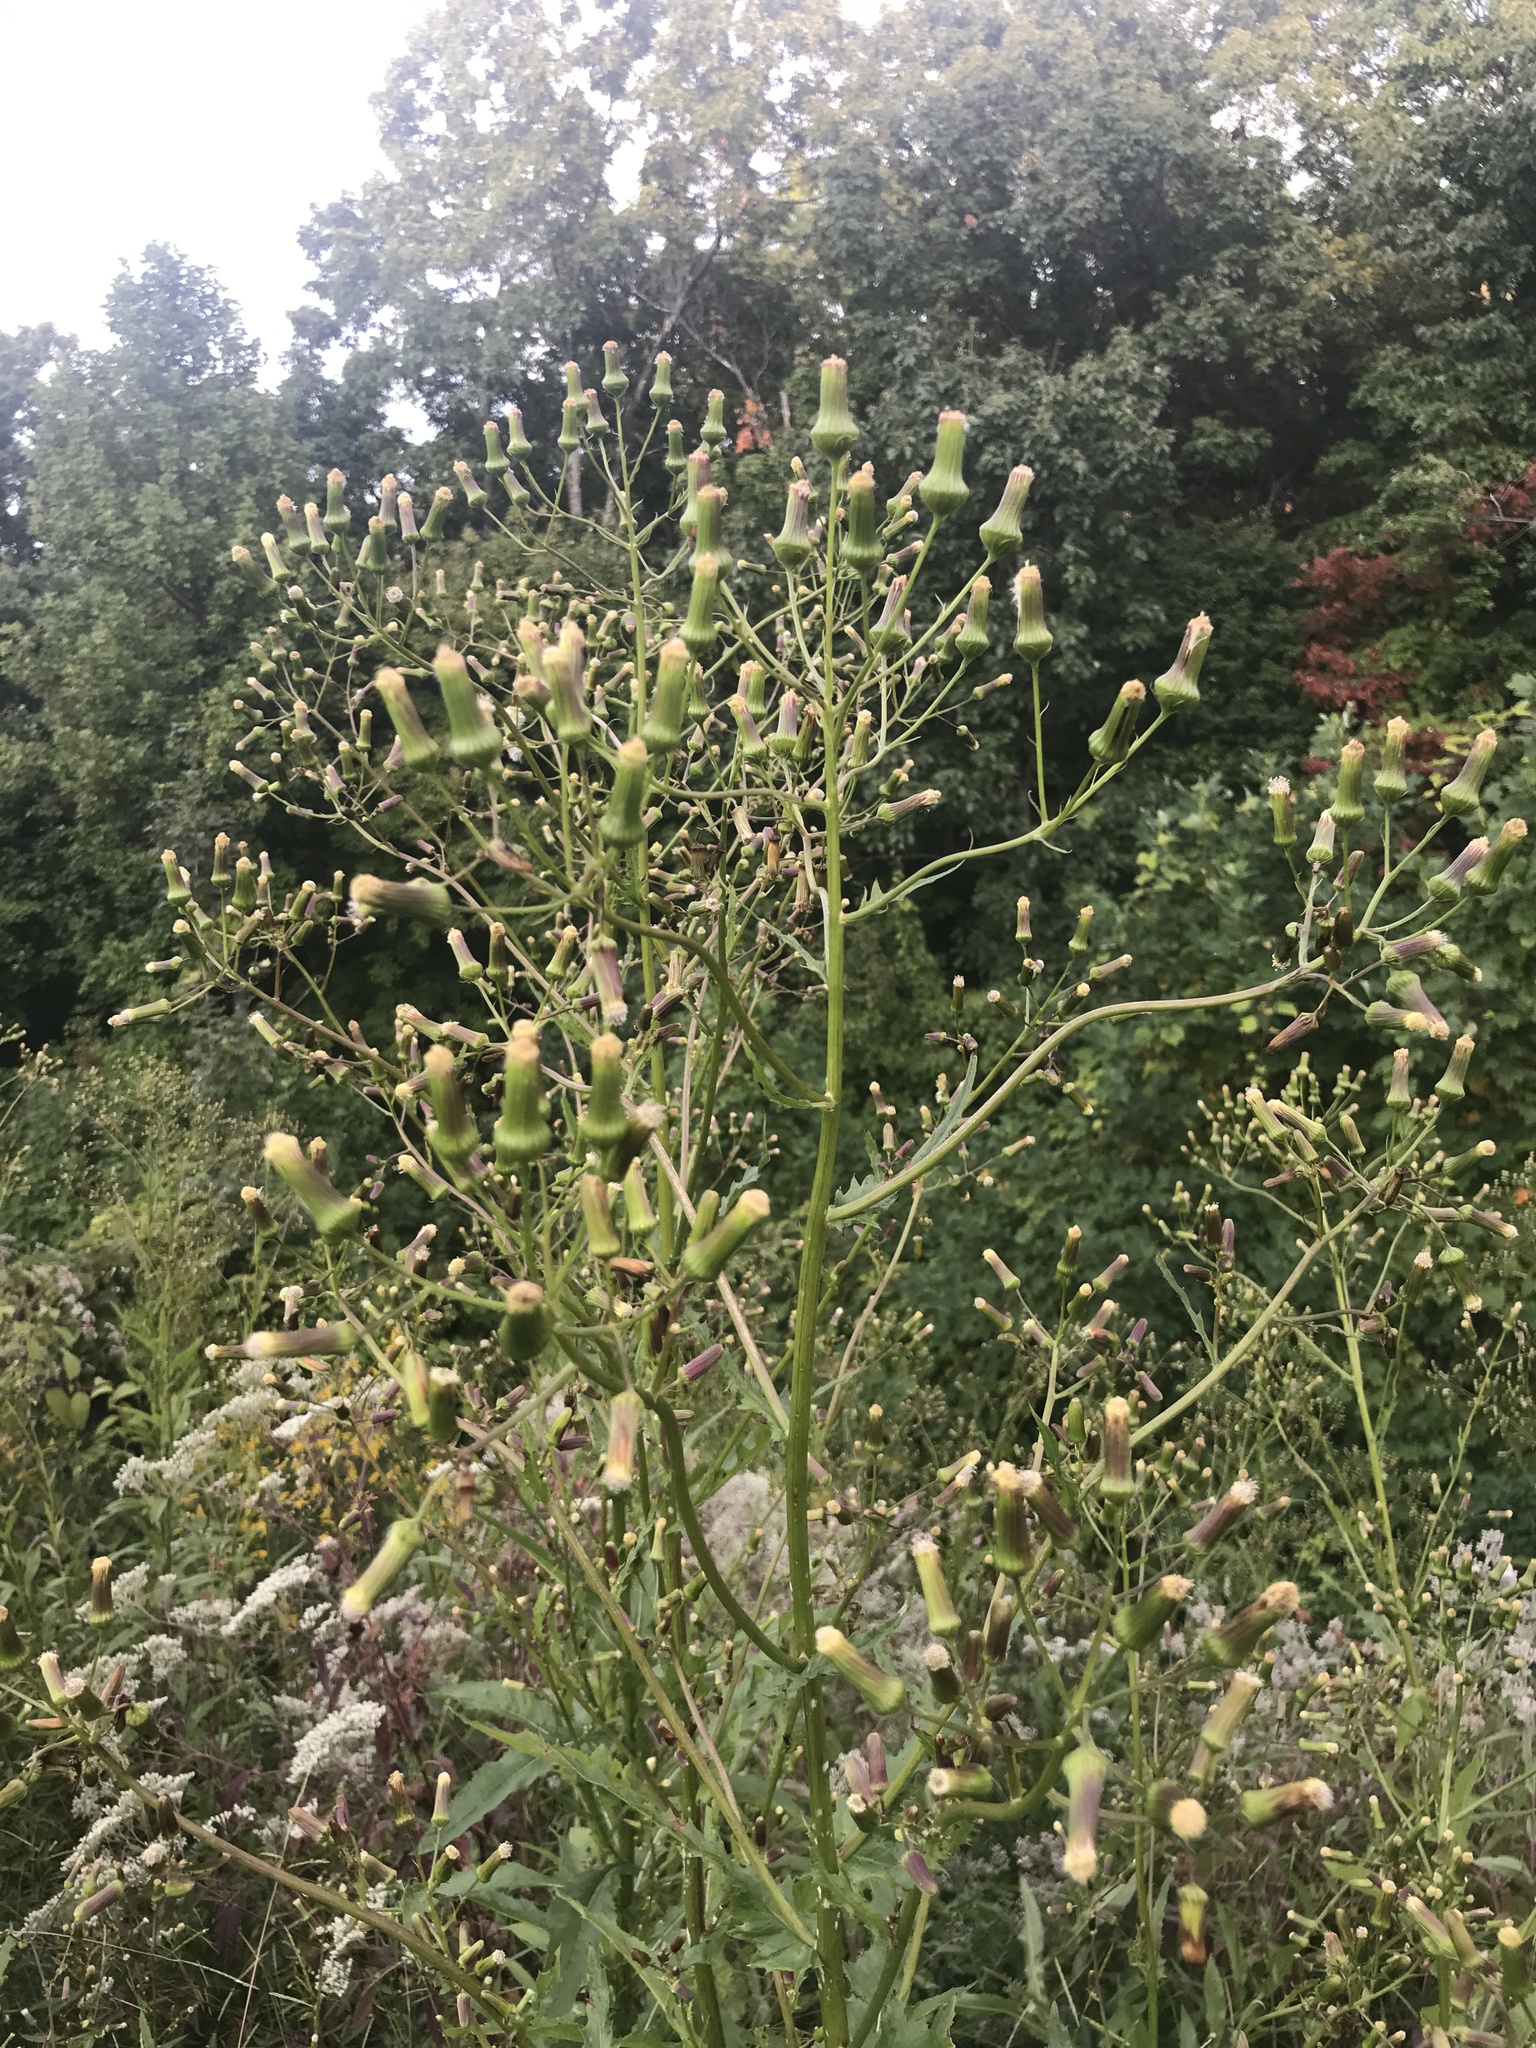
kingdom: Plantae
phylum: Tracheophyta
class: Magnoliopsida
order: Asterales
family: Asteraceae
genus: Erechtites
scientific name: Erechtites hieraciifolius
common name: American burnweed
